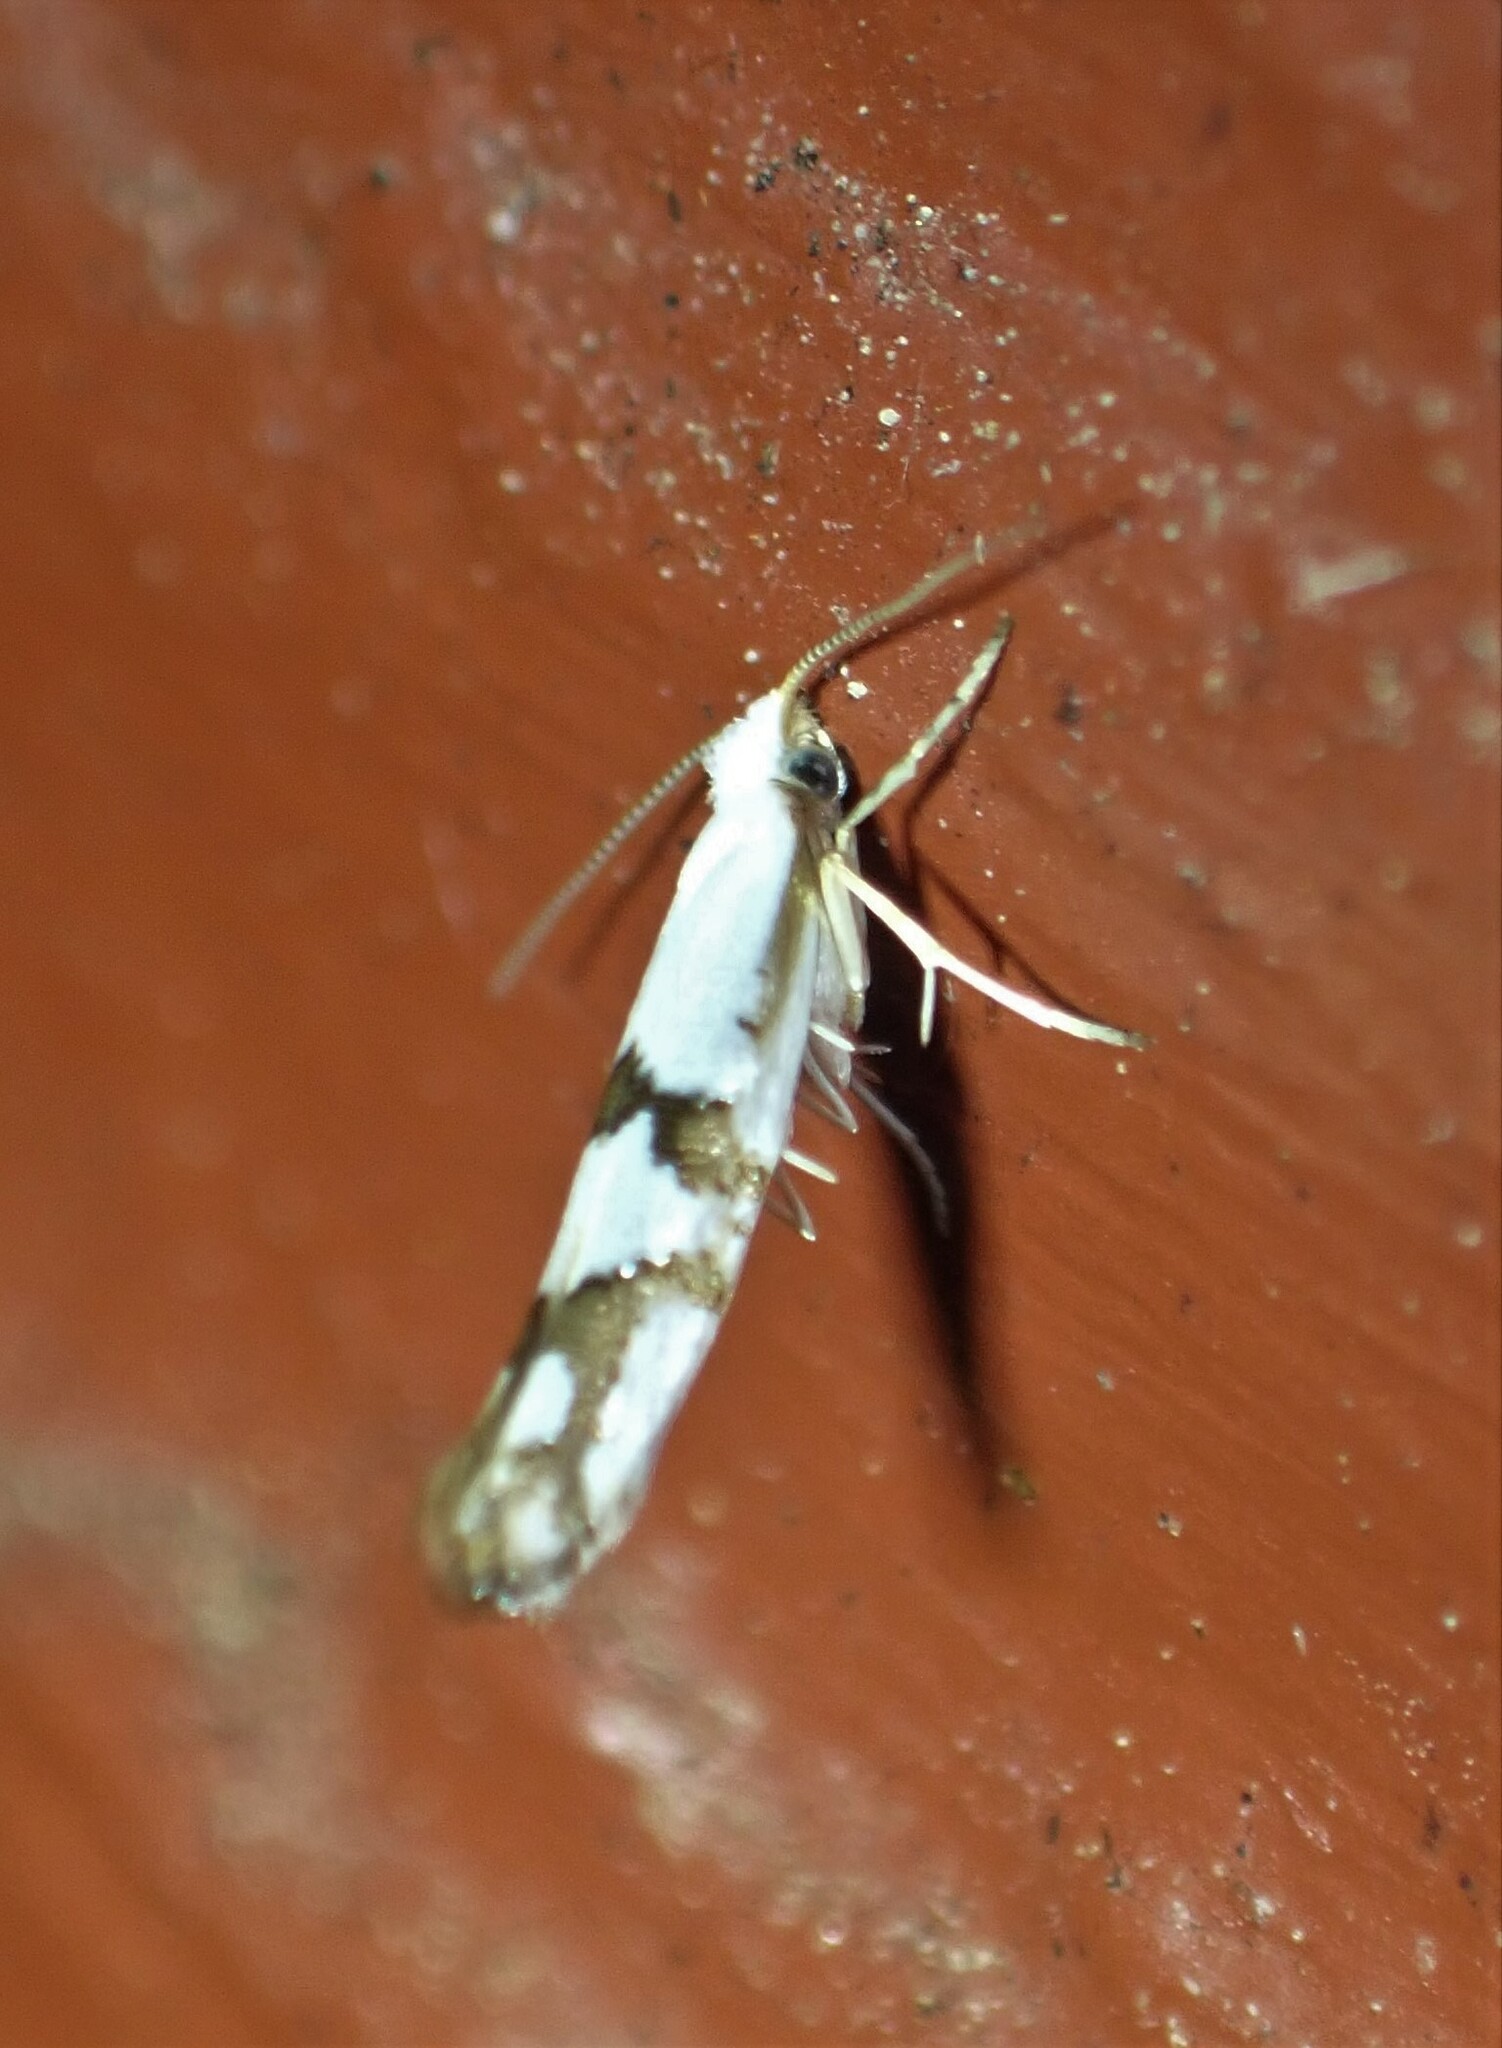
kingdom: Animalia
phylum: Arthropoda
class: Insecta
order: Lepidoptera
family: Argyresthiidae
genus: Argyresthia
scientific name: Argyresthia oreasella
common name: Cherry shoot borer moth
